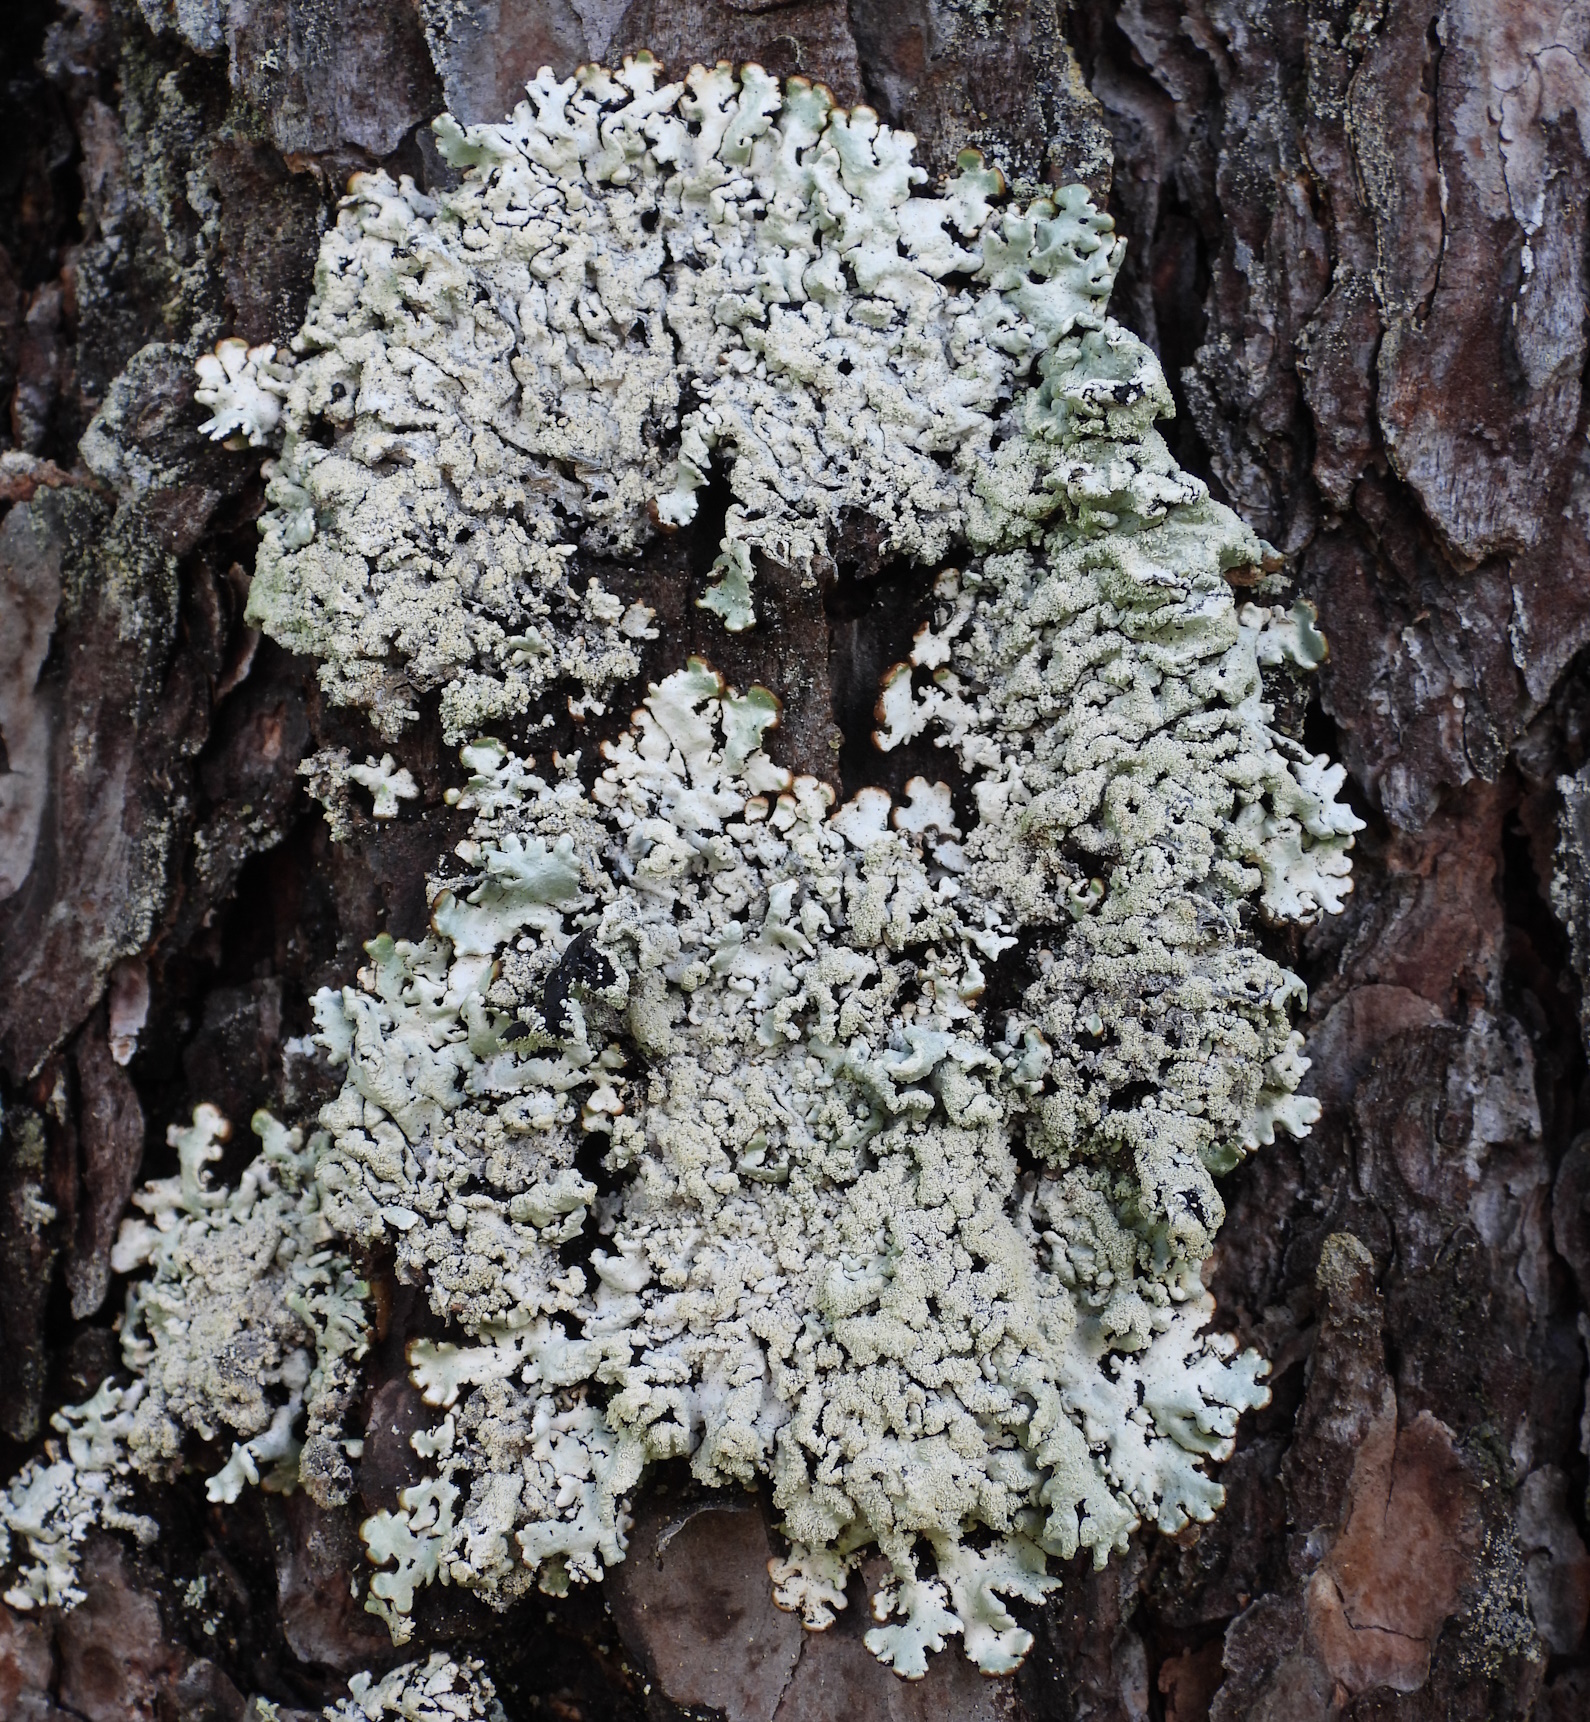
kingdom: Fungi
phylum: Ascomycota
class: Lecanoromycetes
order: Lecanorales
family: Parmeliaceae
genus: Hypogymnia
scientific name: Hypogymnia farinacea
